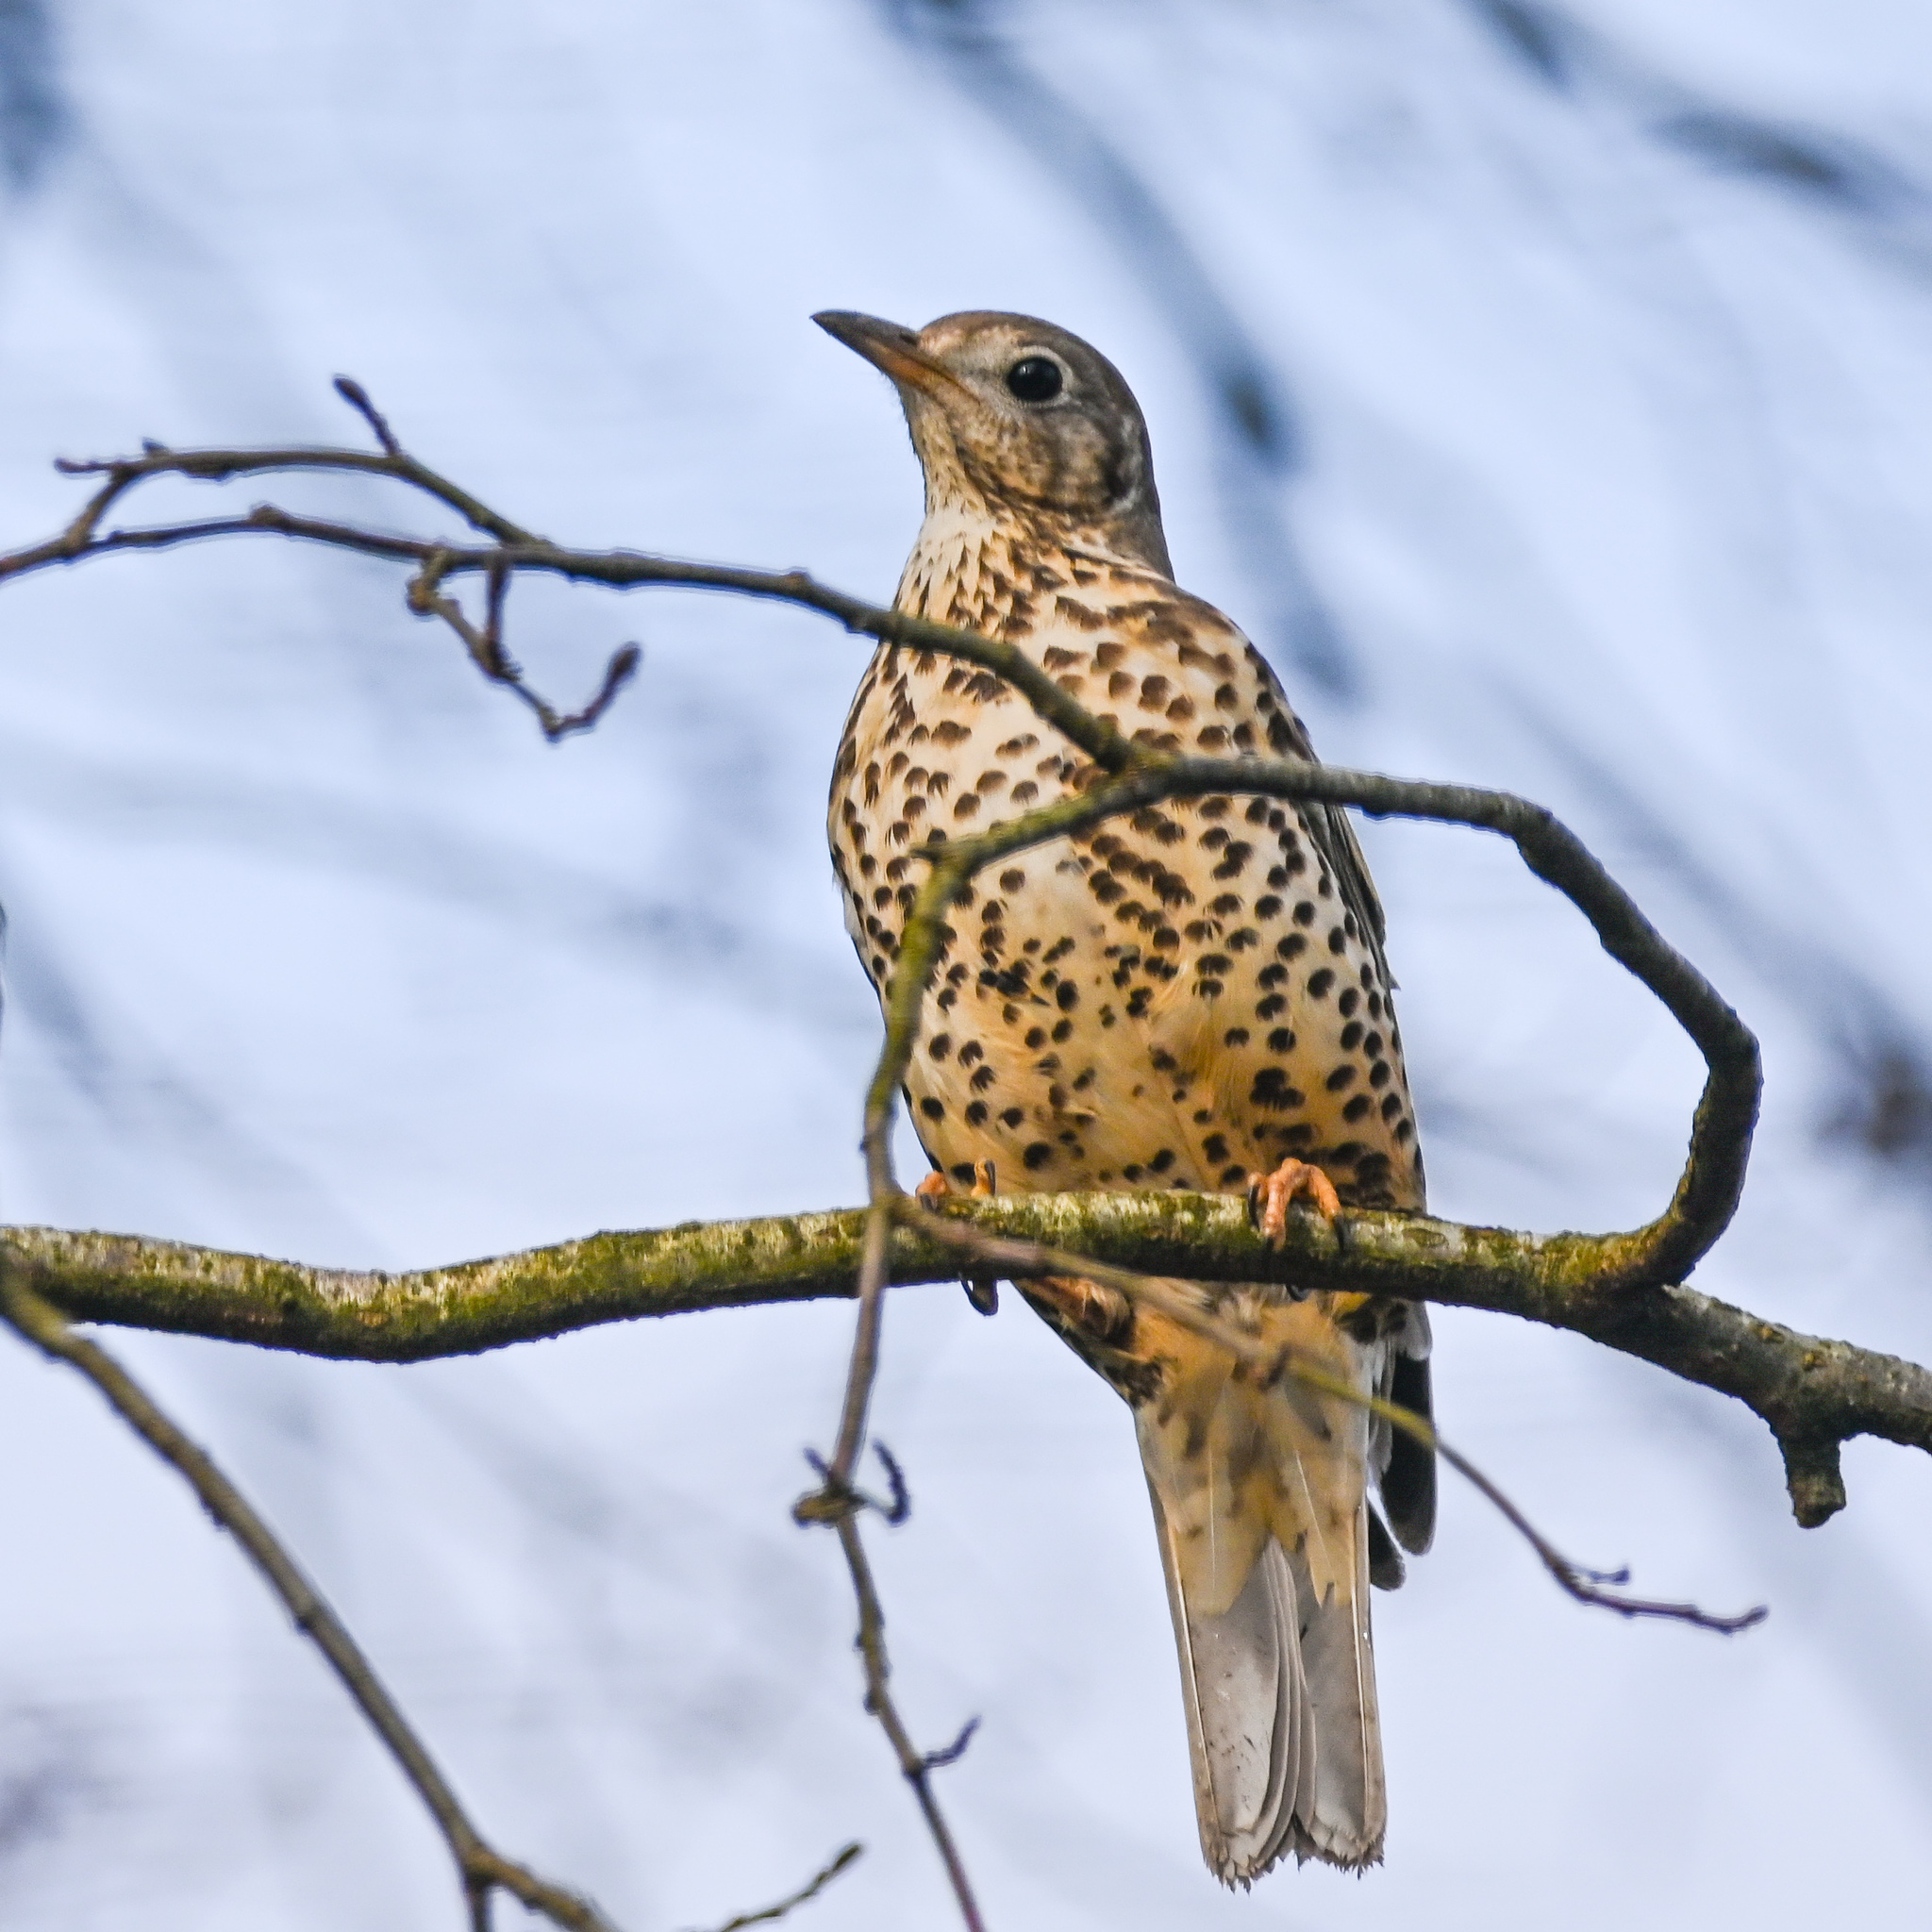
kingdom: Animalia
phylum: Chordata
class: Aves
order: Passeriformes
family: Turdidae
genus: Turdus
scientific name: Turdus viscivorus
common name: Mistle thrush
